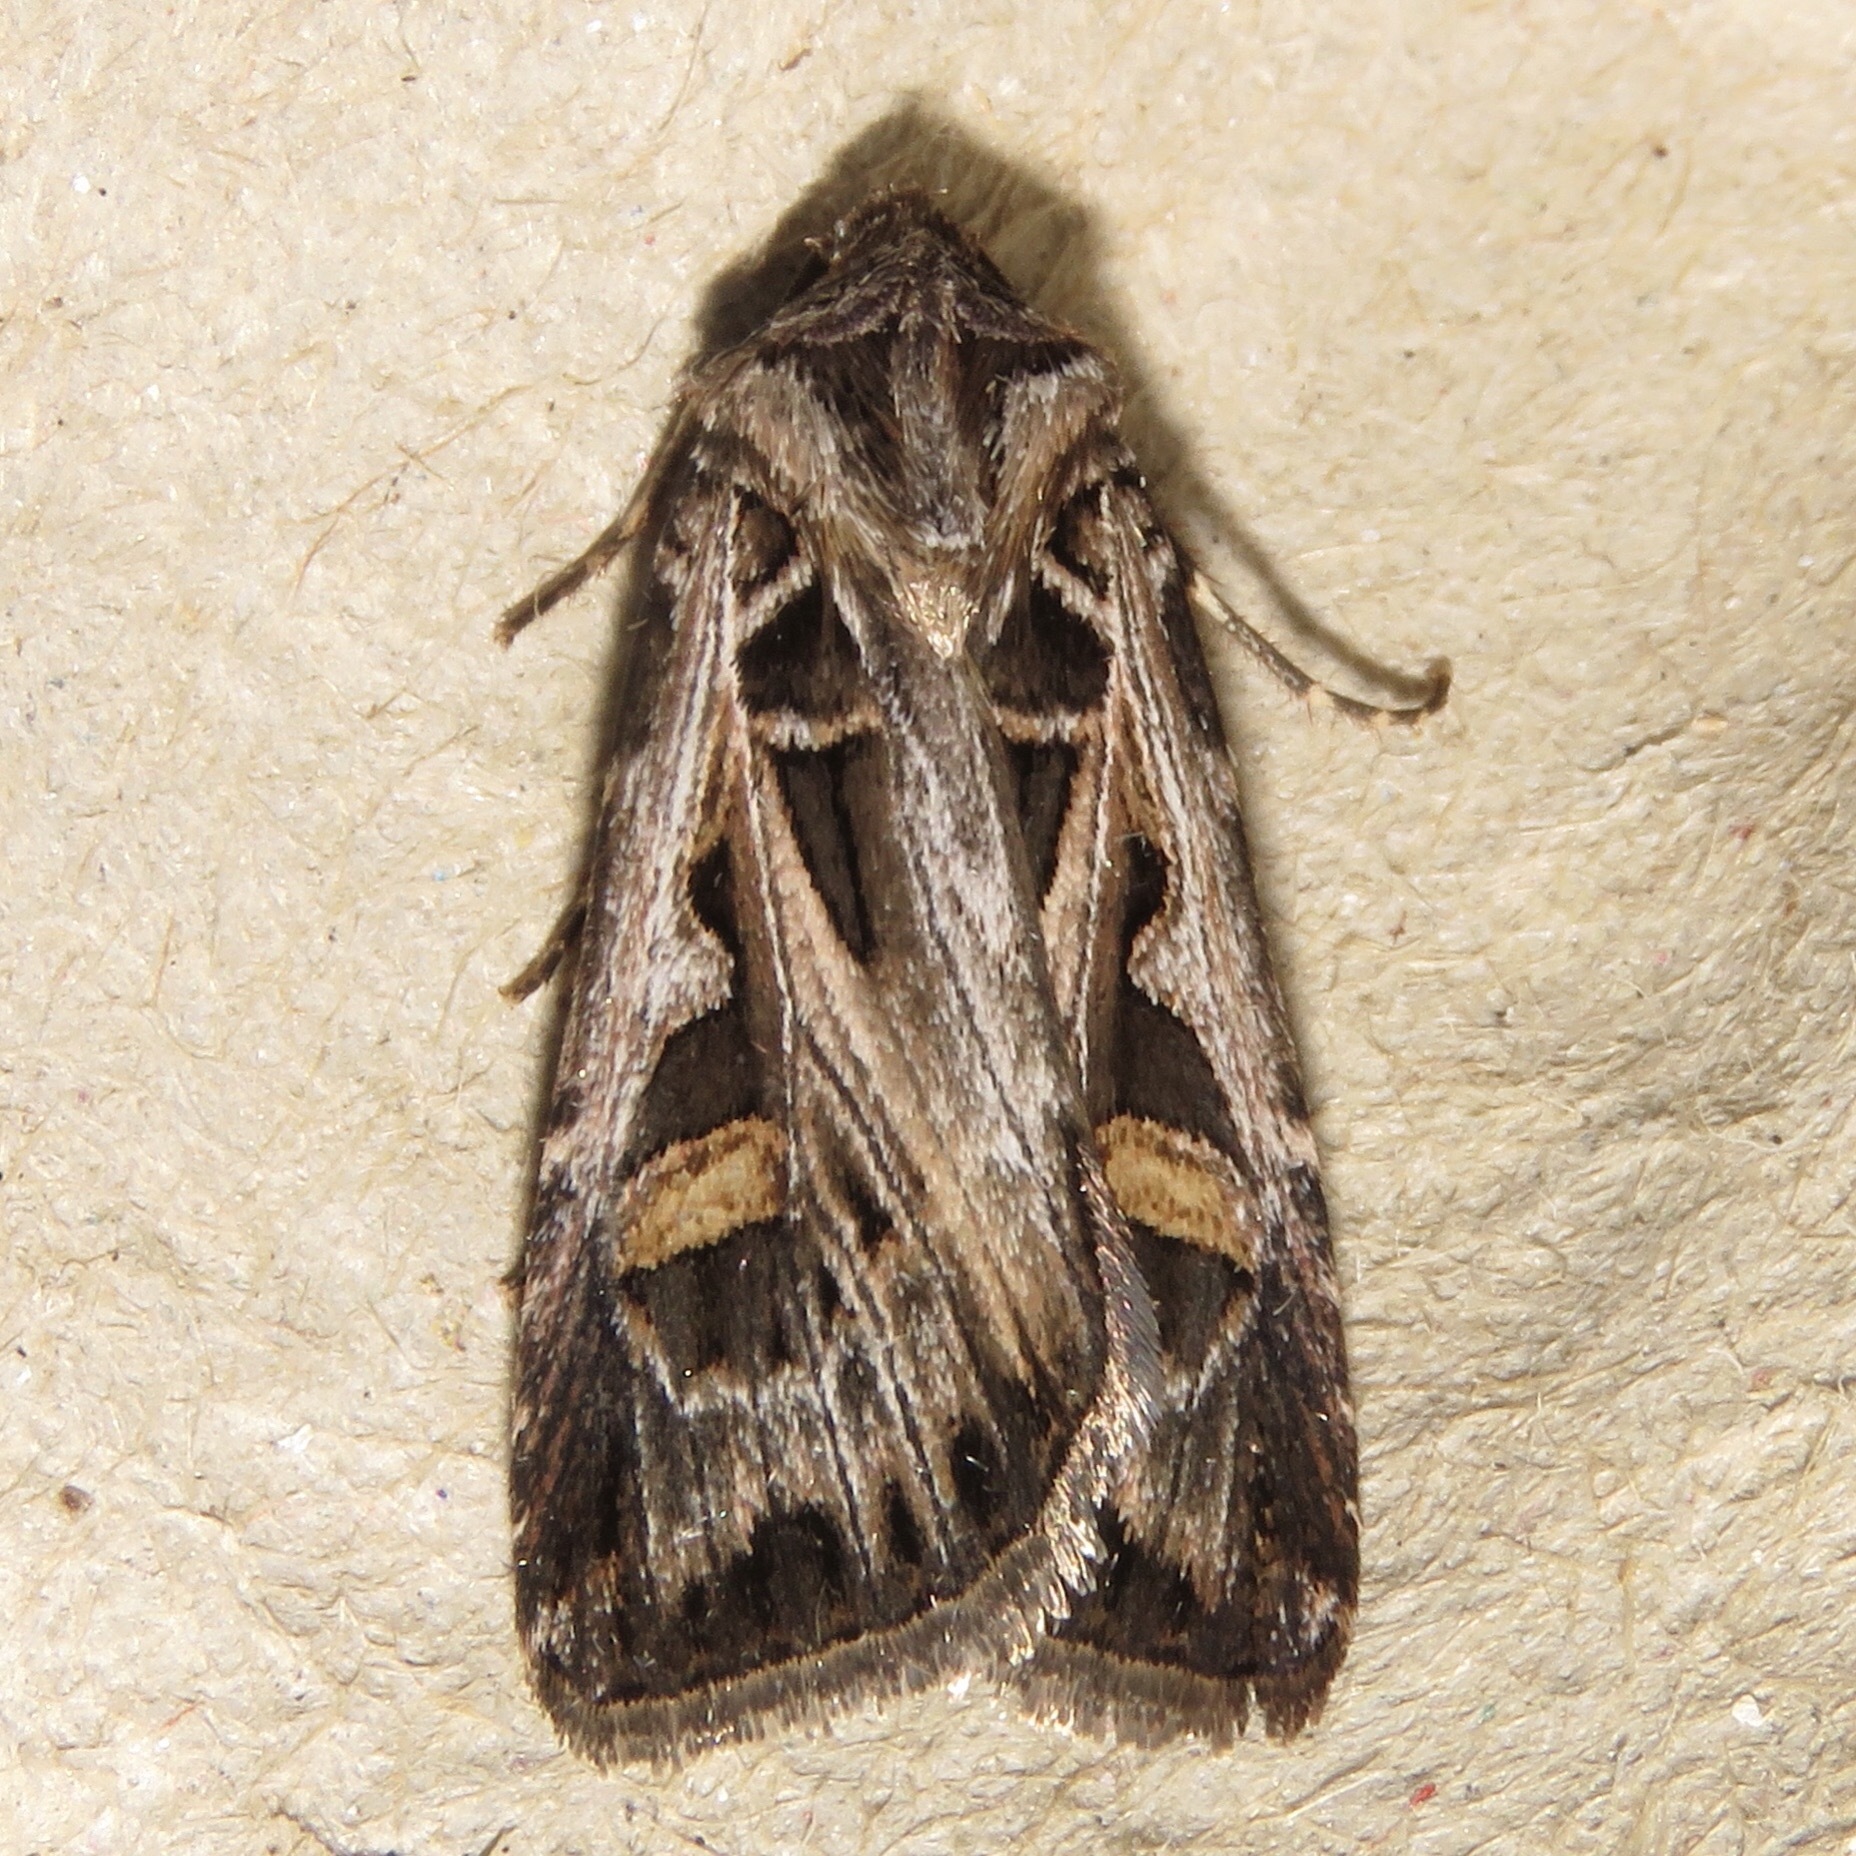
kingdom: Animalia
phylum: Arthropoda
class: Insecta
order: Lepidoptera
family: Noctuidae
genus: Feltia
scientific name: Feltia jaculifera
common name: Dingy cutworm moth
